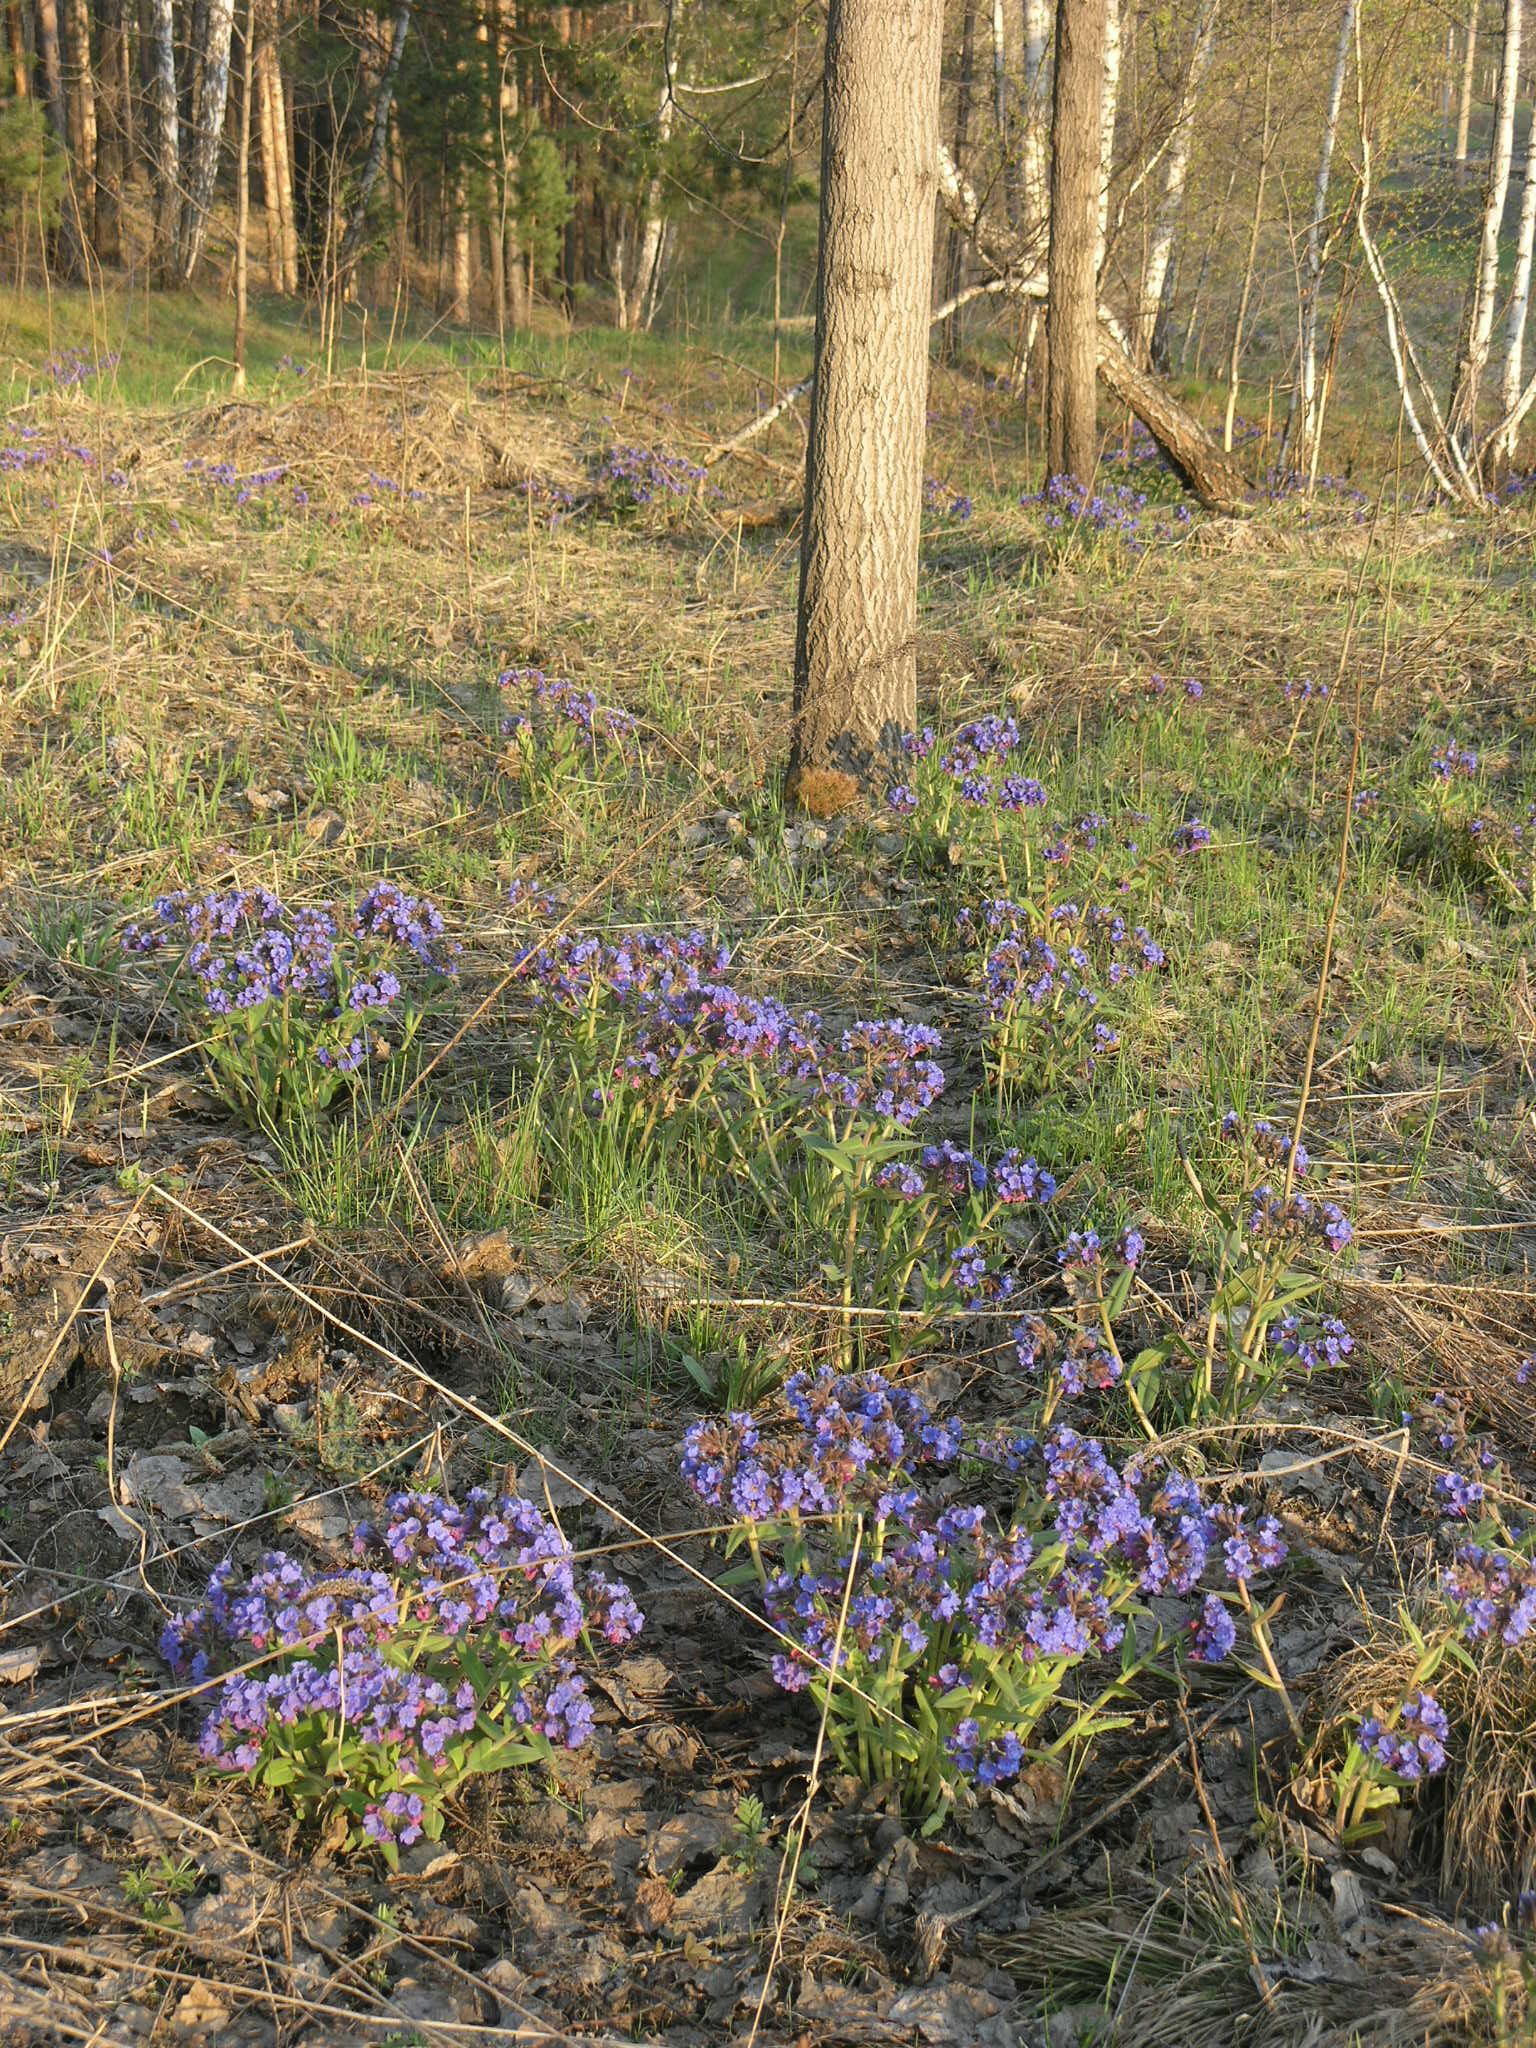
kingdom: Plantae
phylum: Tracheophyta
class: Magnoliopsida
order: Boraginales
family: Boraginaceae
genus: Pulmonaria
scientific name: Pulmonaria mollis
